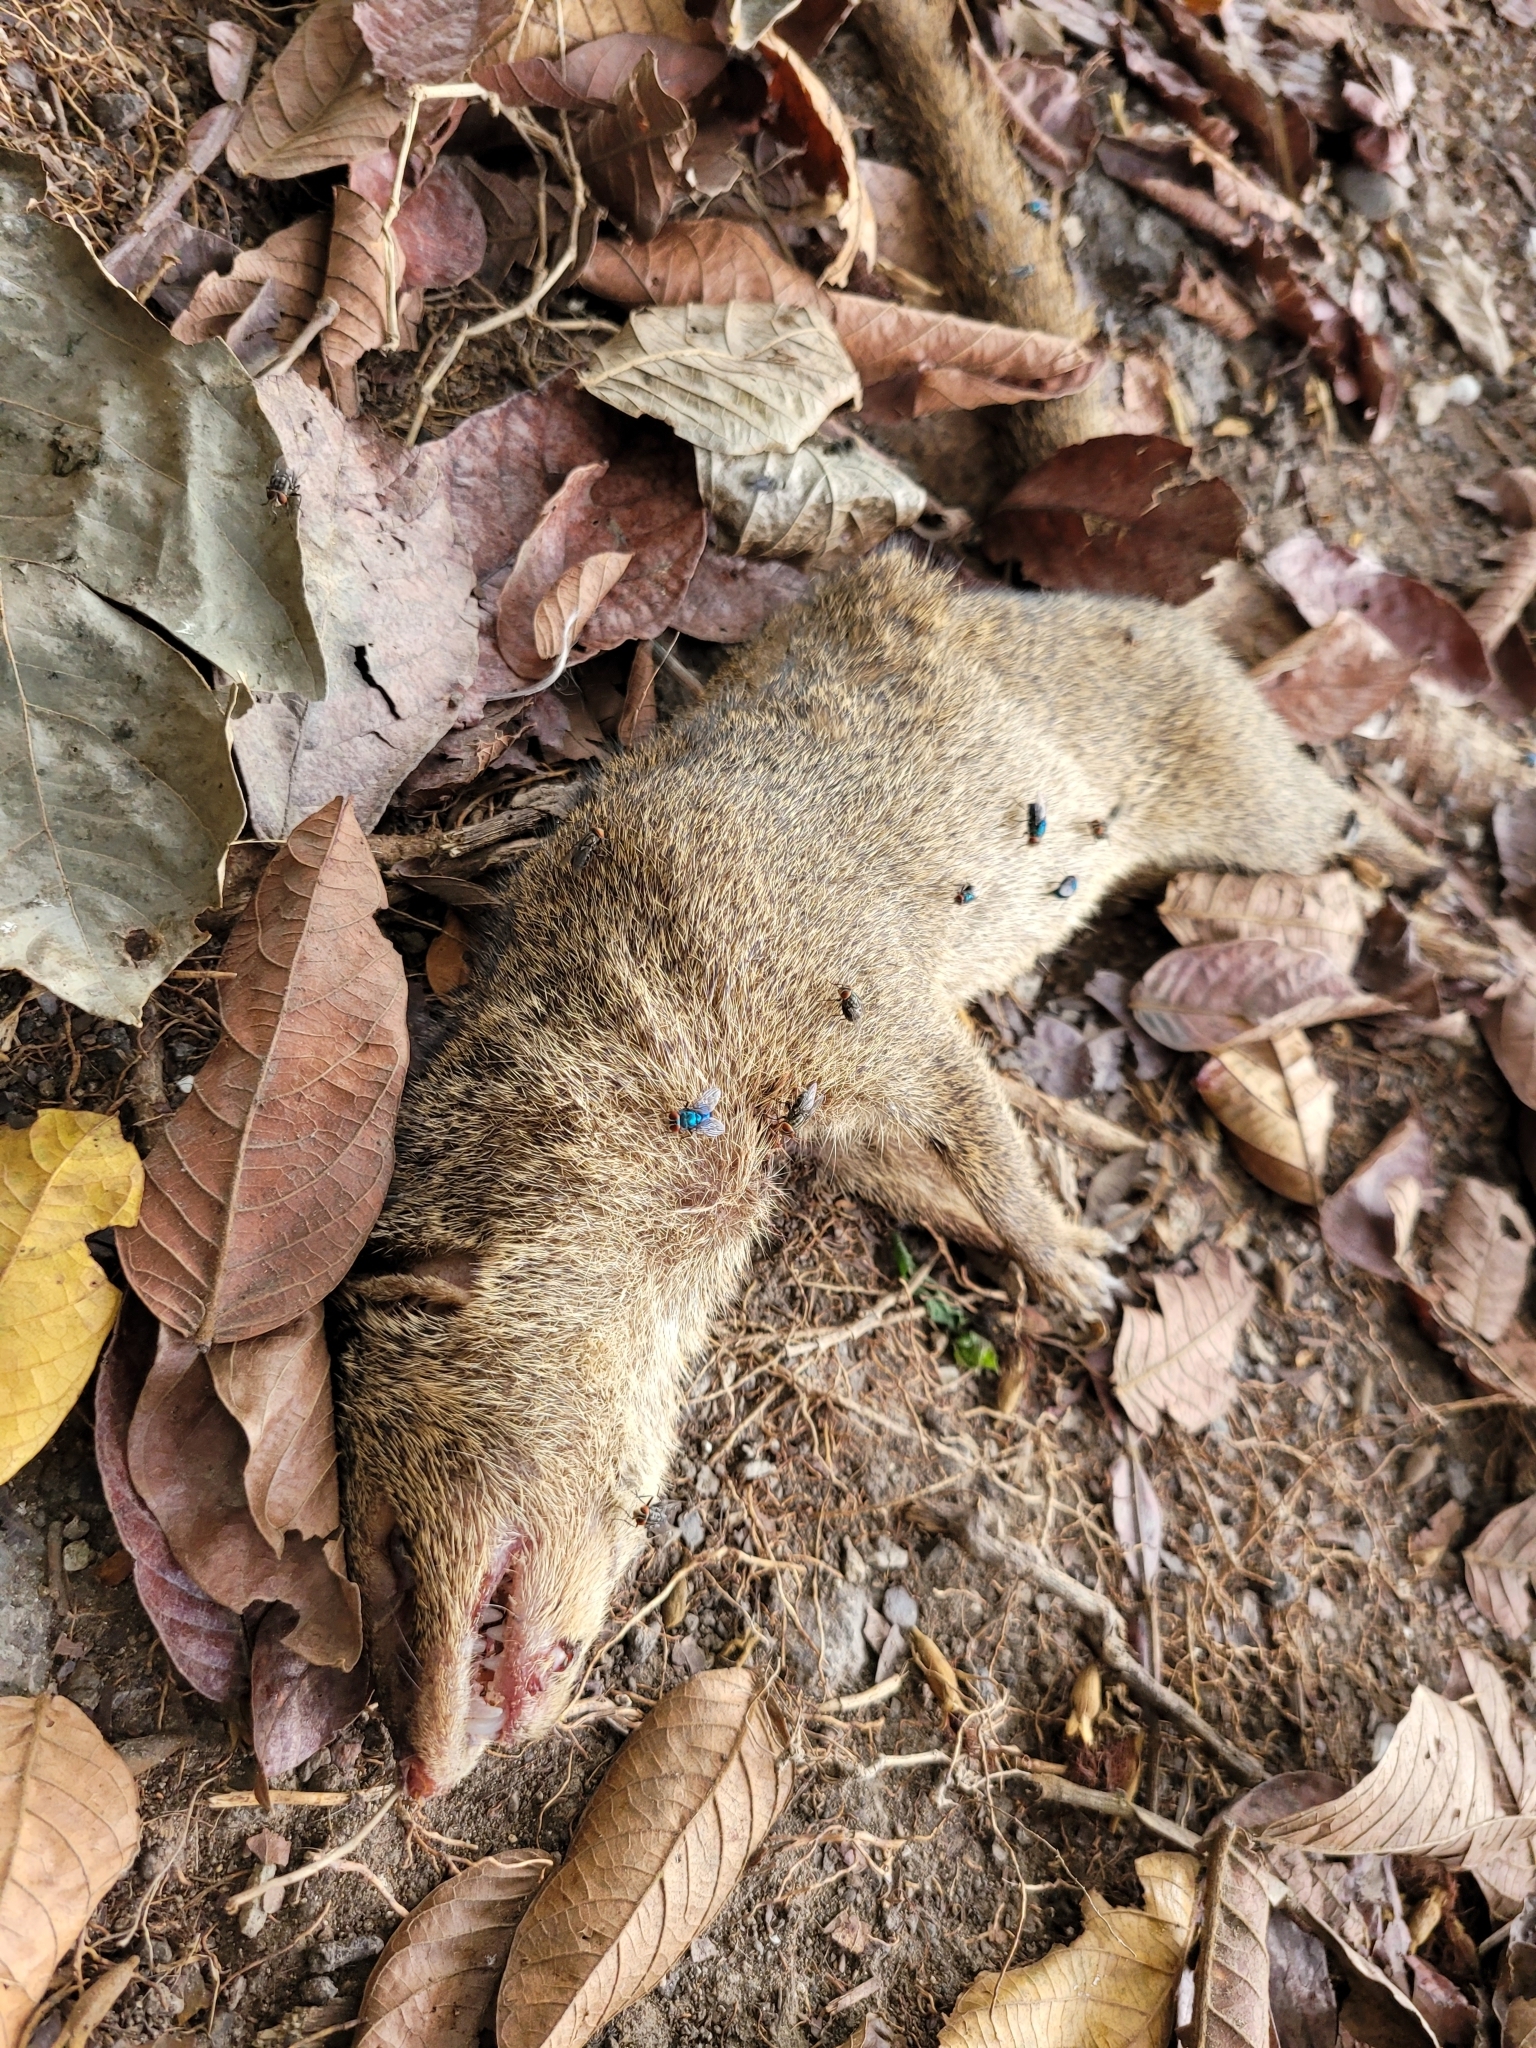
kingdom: Animalia
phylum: Chordata
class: Mammalia
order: Carnivora
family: Herpestidae
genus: Herpestes
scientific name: Herpestes javanicus
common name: Small asian mongoose
